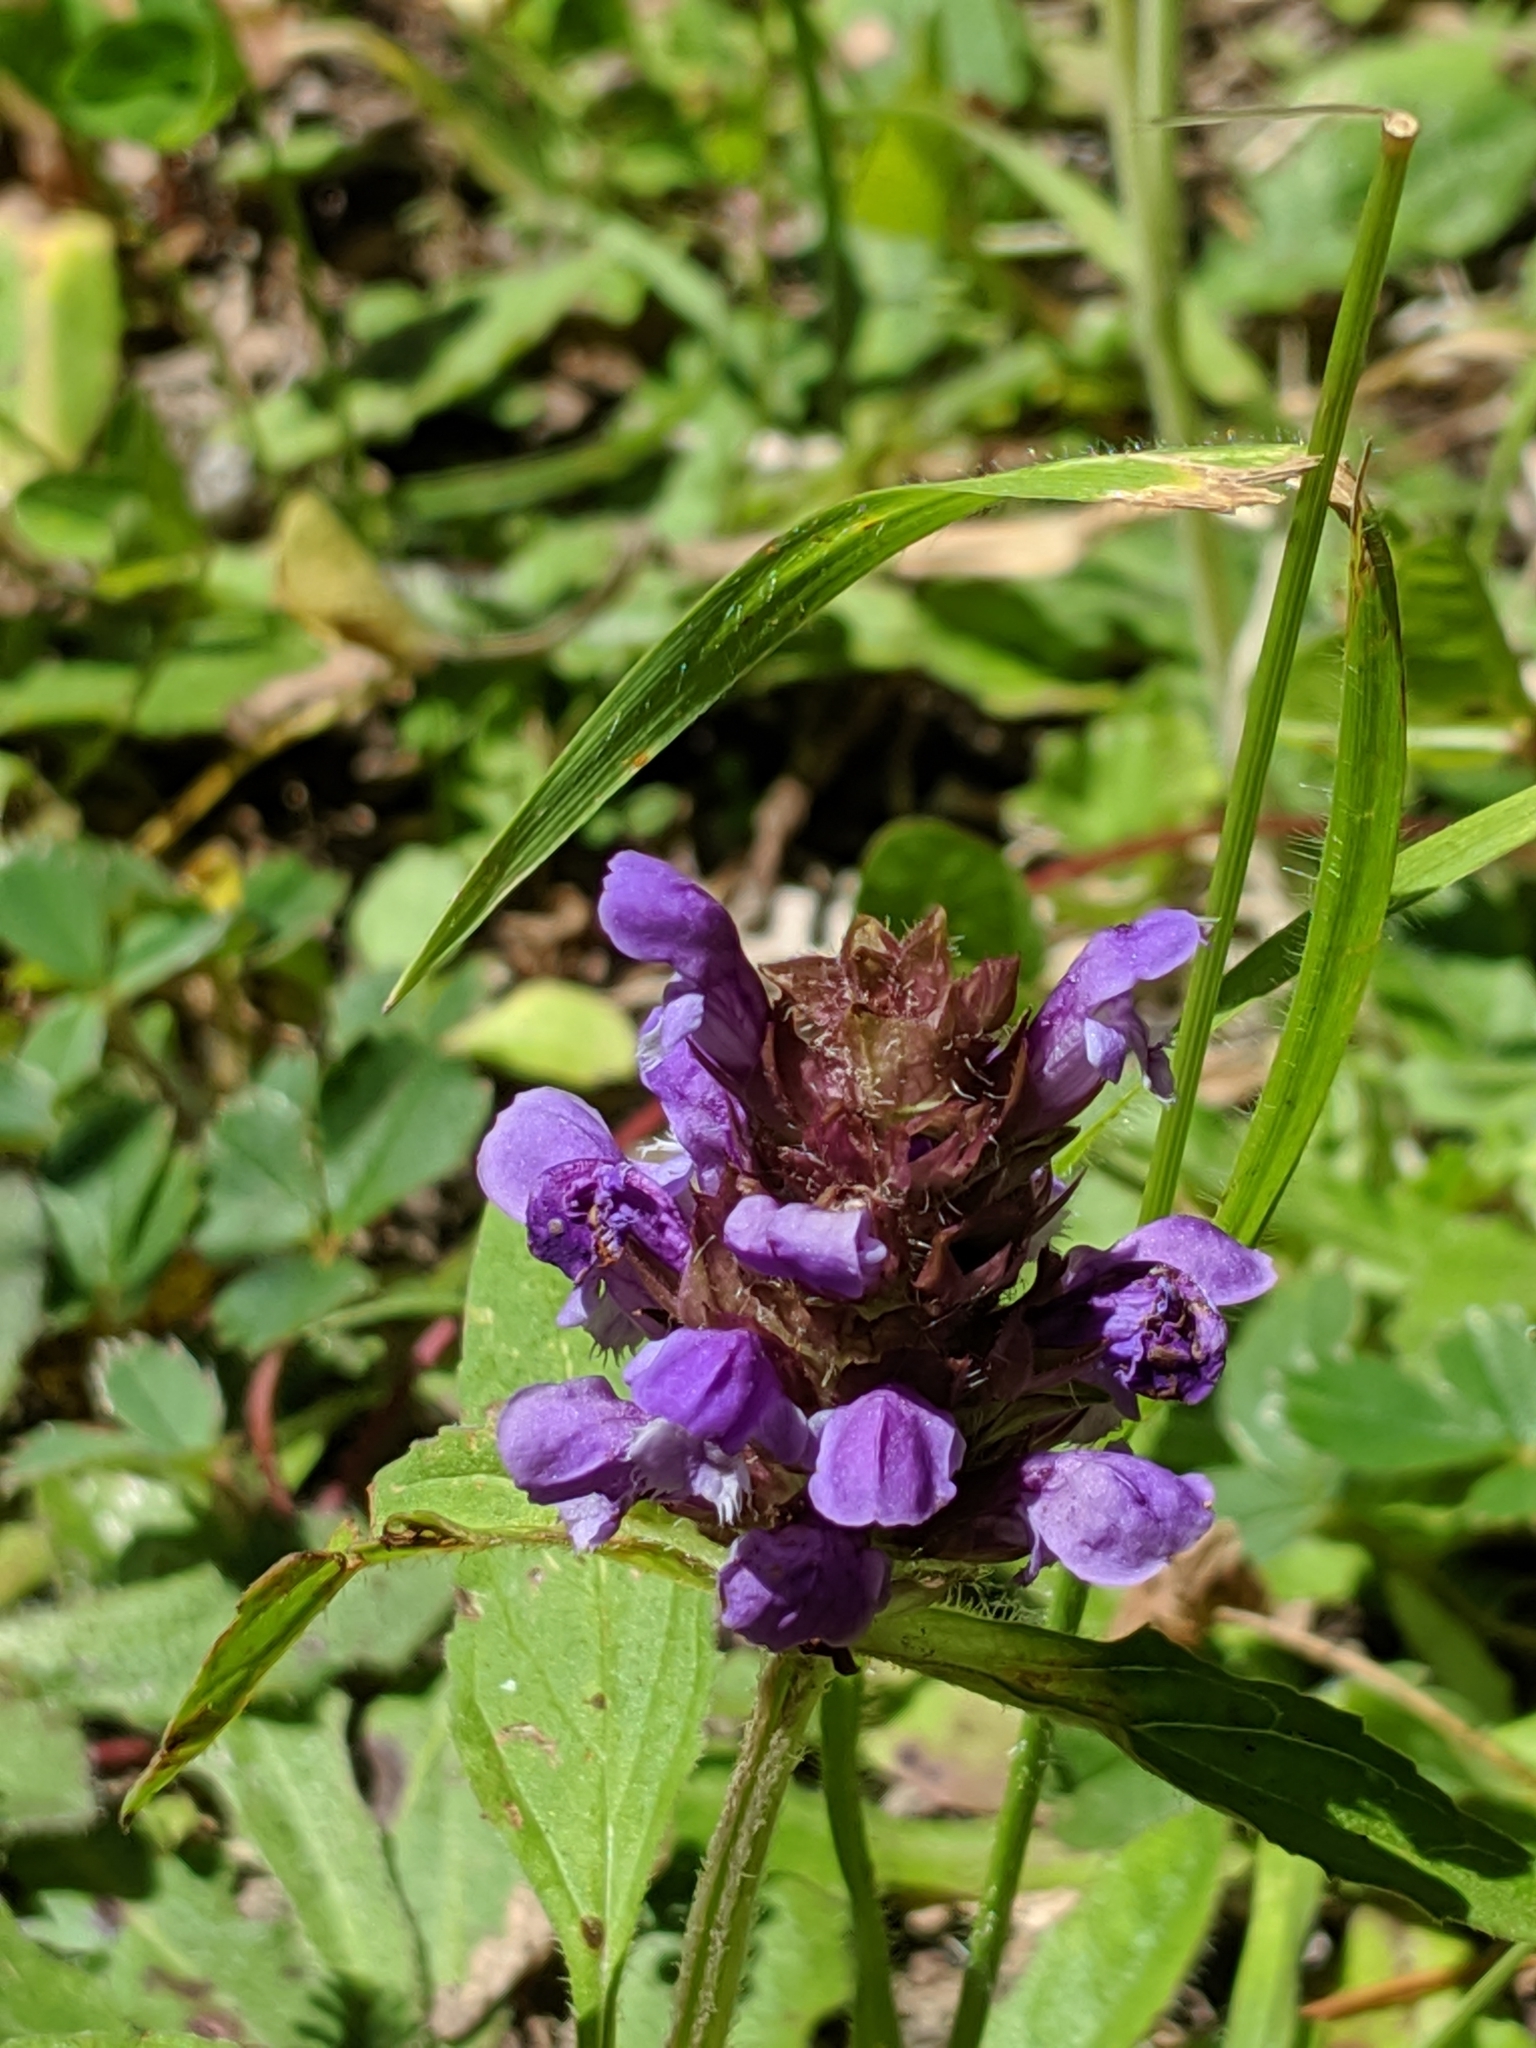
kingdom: Plantae
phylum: Tracheophyta
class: Magnoliopsida
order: Lamiales
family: Lamiaceae
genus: Prunella
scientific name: Prunella vulgaris
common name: Heal-all
